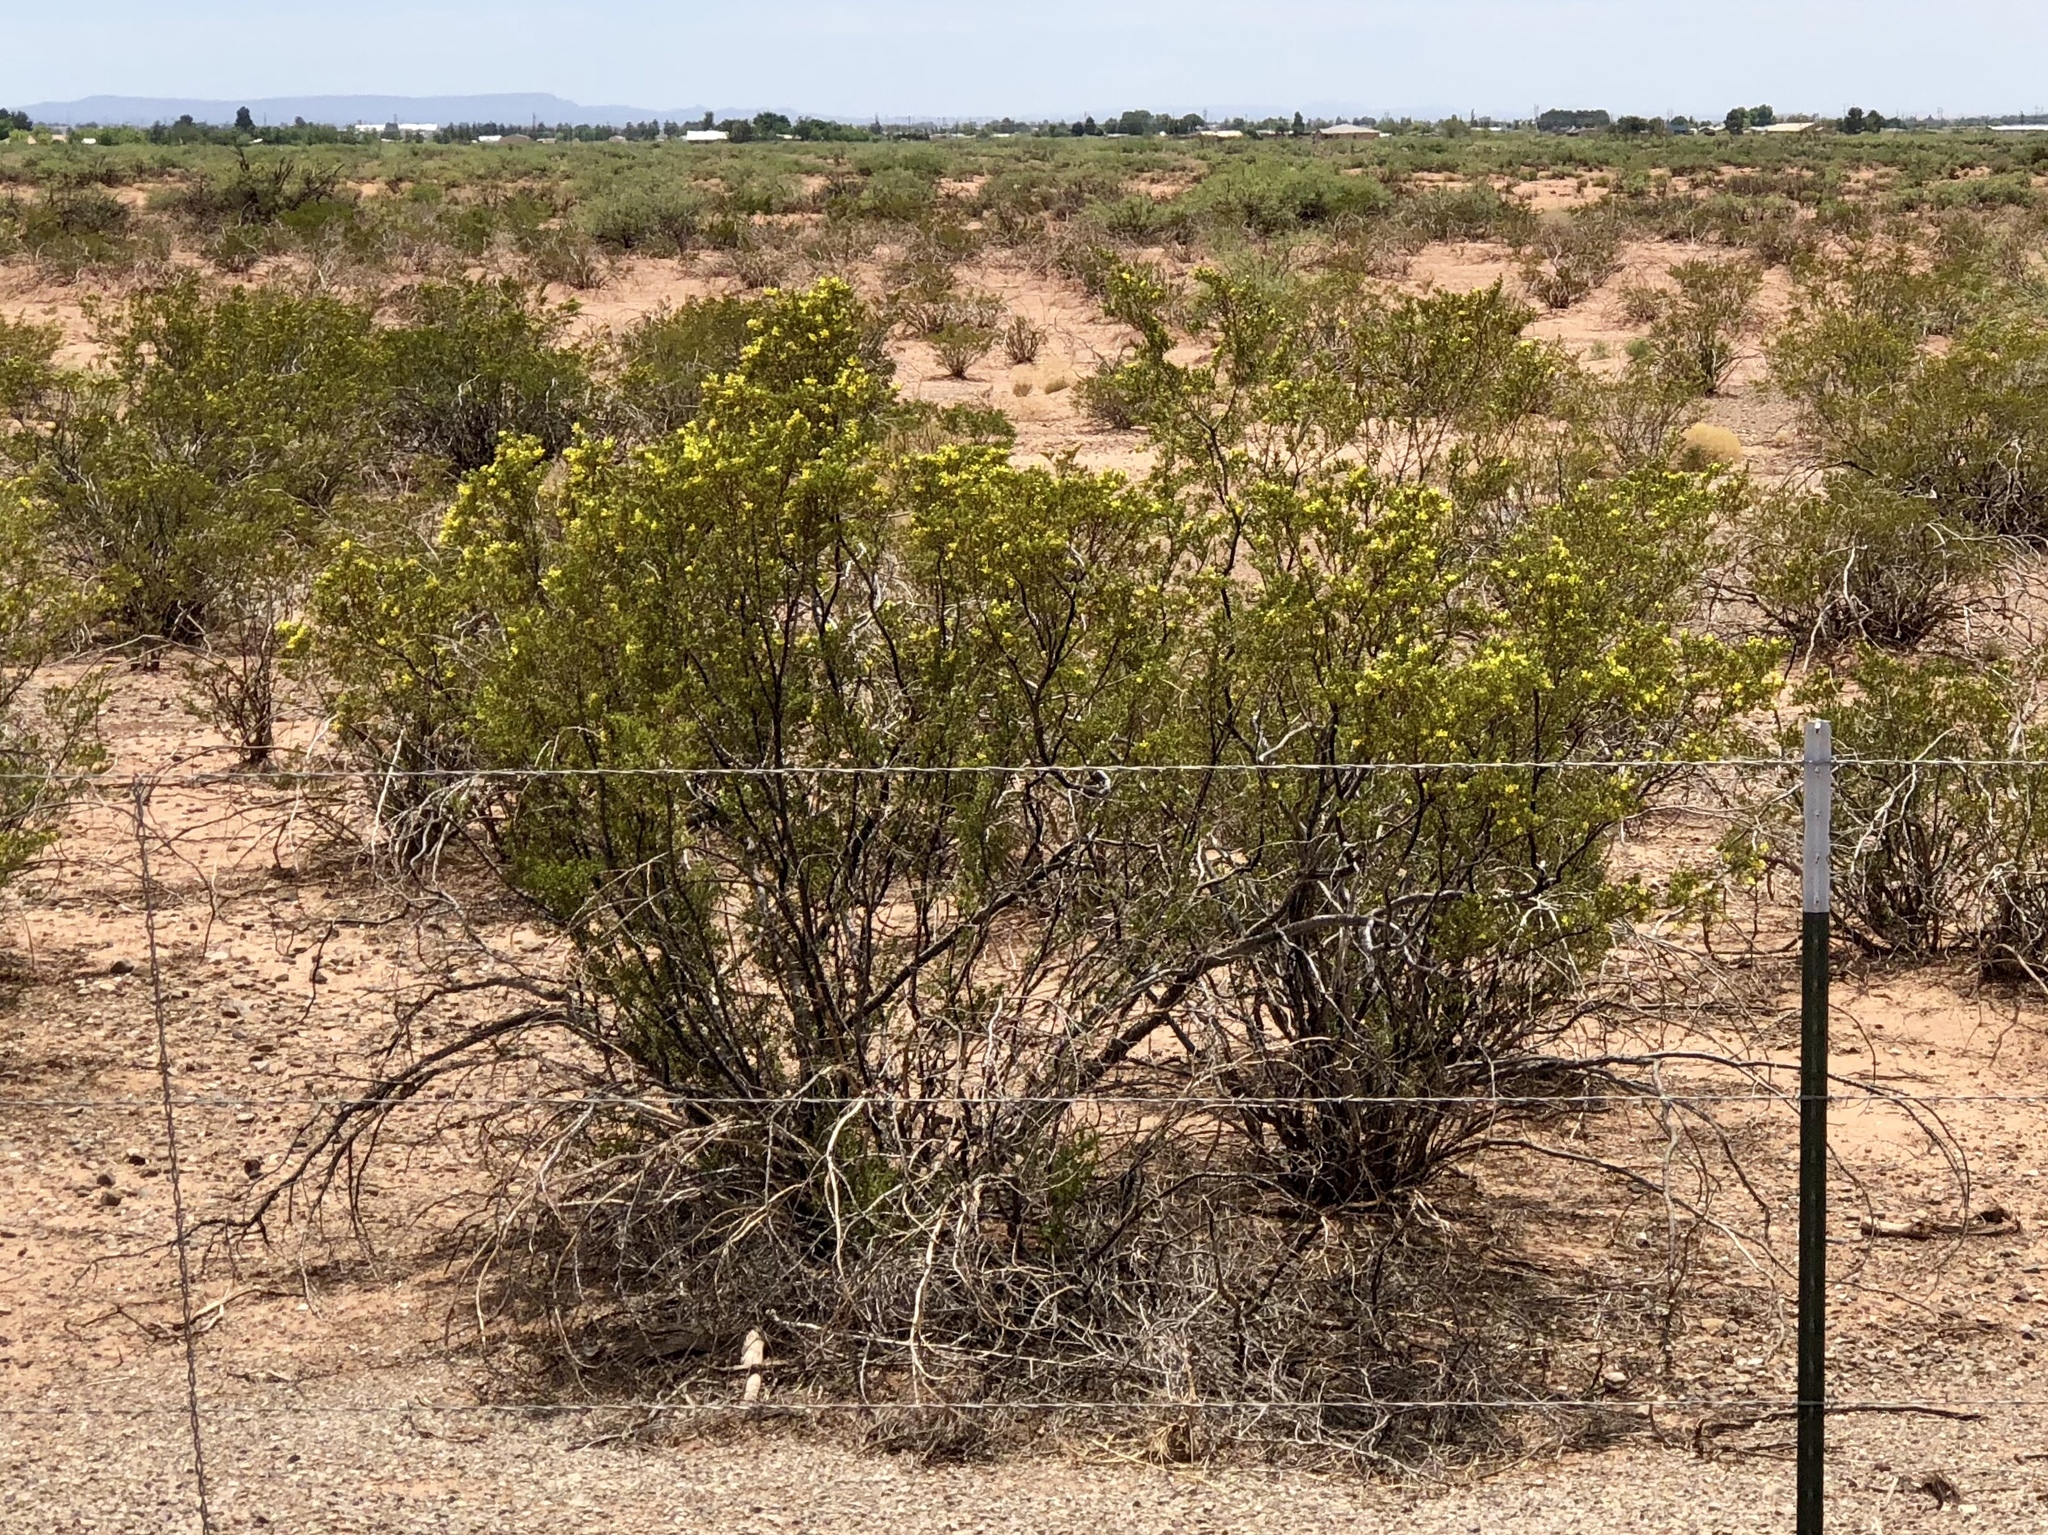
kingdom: Plantae
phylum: Tracheophyta
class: Magnoliopsida
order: Zygophyllales
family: Zygophyllaceae
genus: Larrea
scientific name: Larrea tridentata
